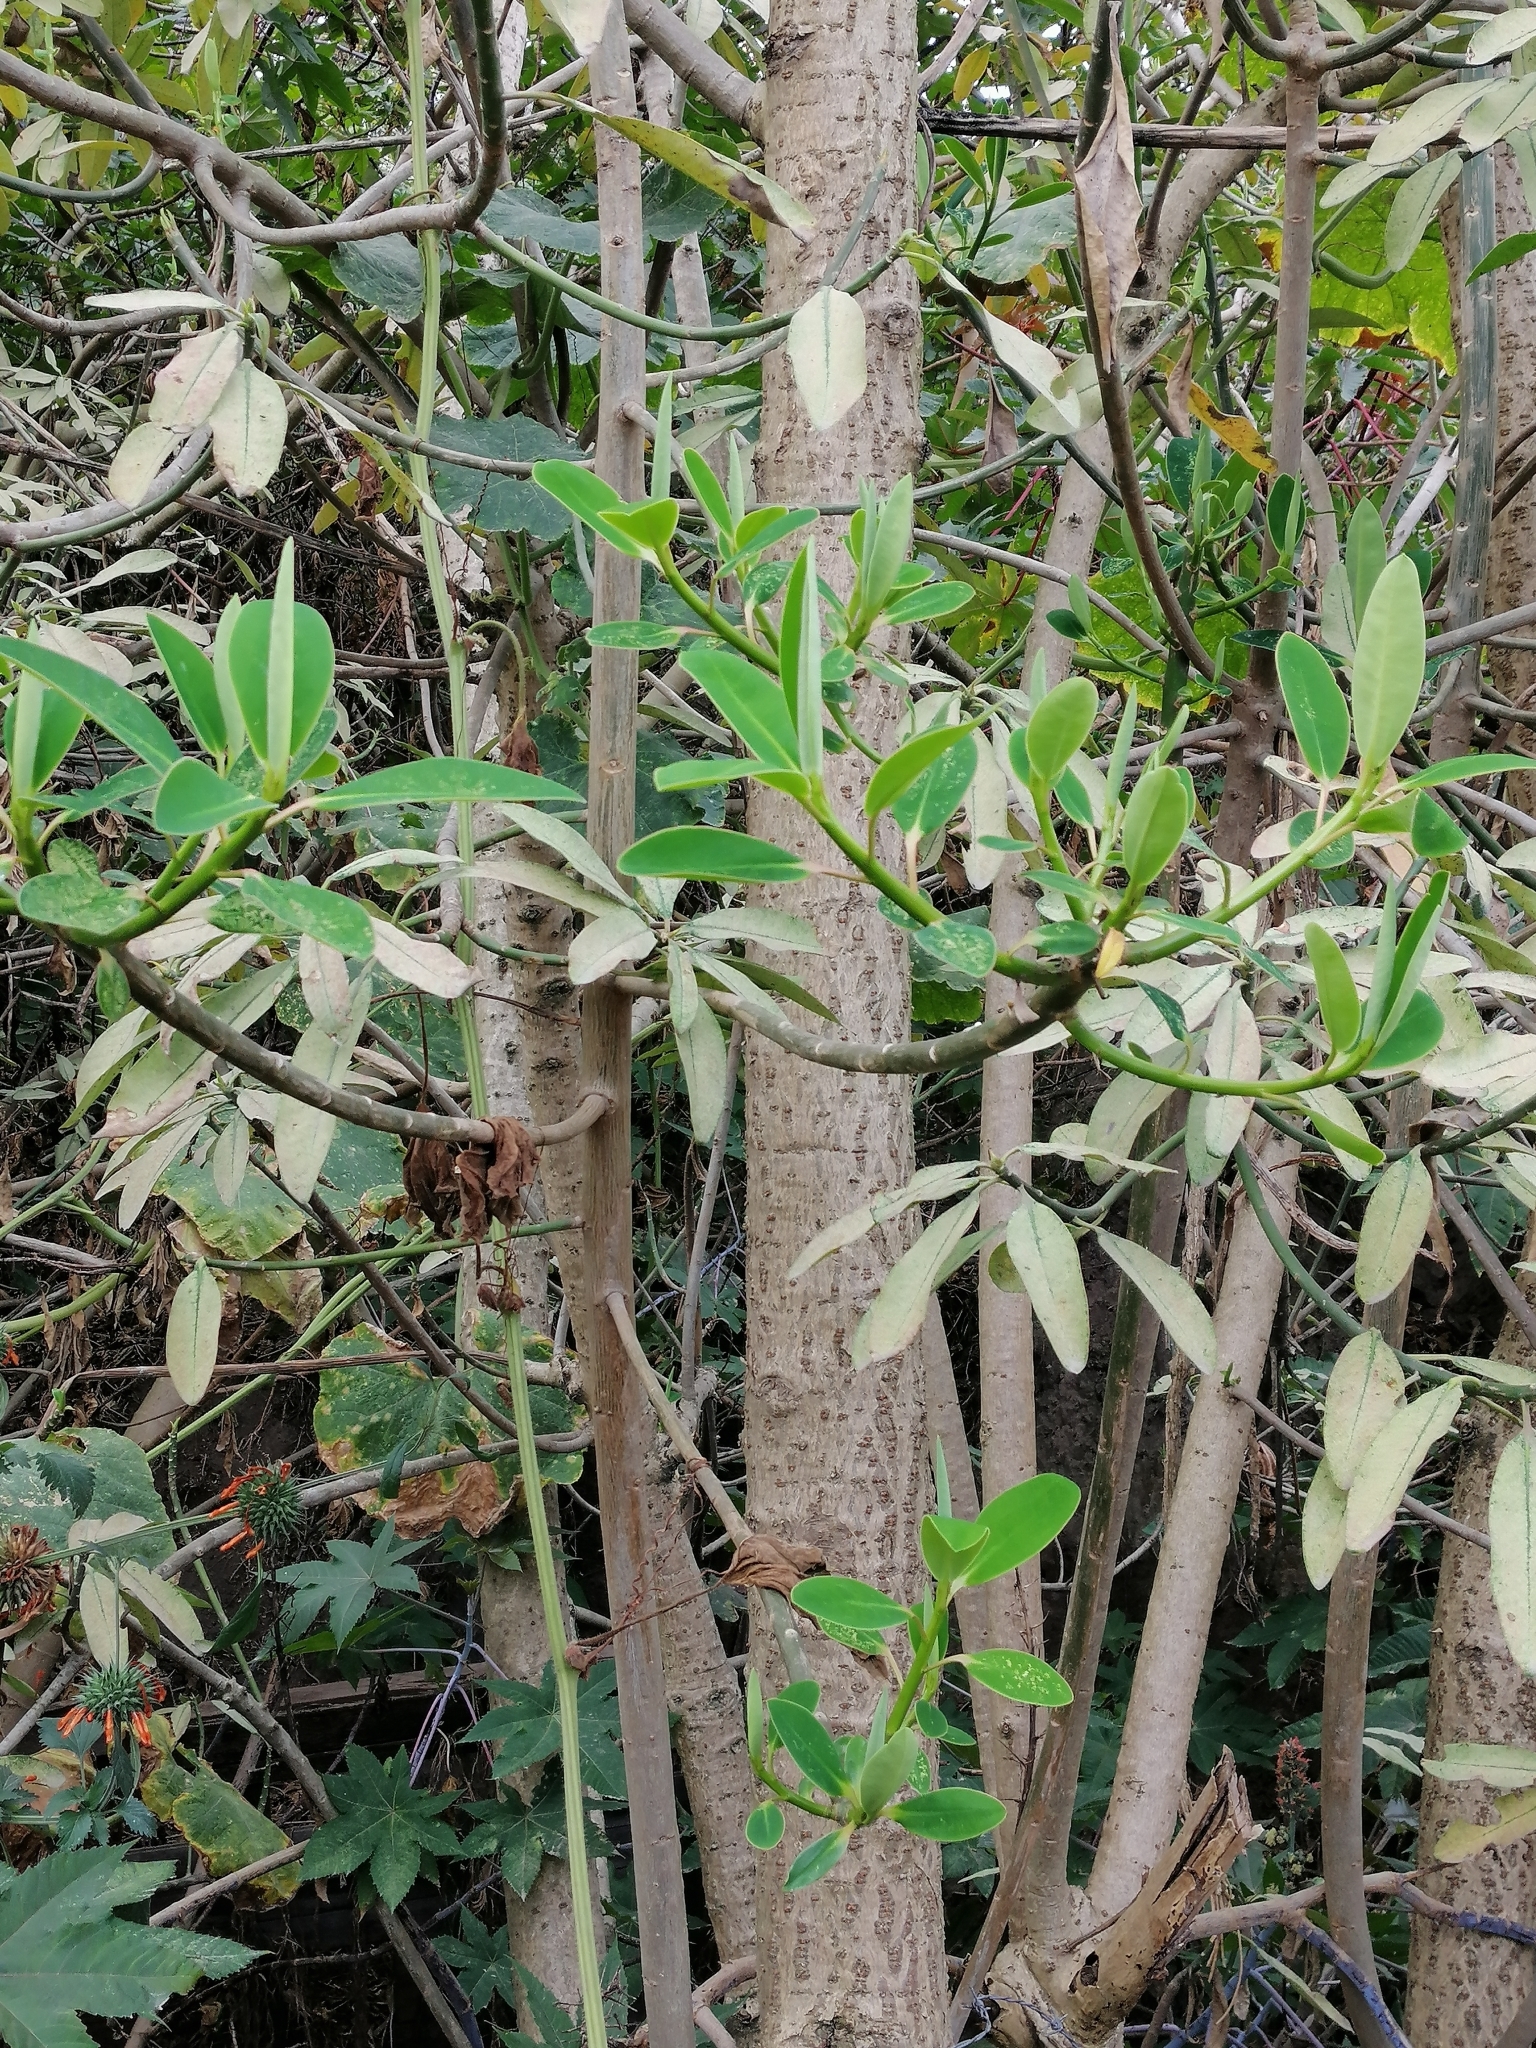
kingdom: Plantae
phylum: Tracheophyta
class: Magnoliopsida
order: Malpighiales
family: Euphorbiaceae
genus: Euphorbia
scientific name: Euphorbia laurifolia
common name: Lechero
